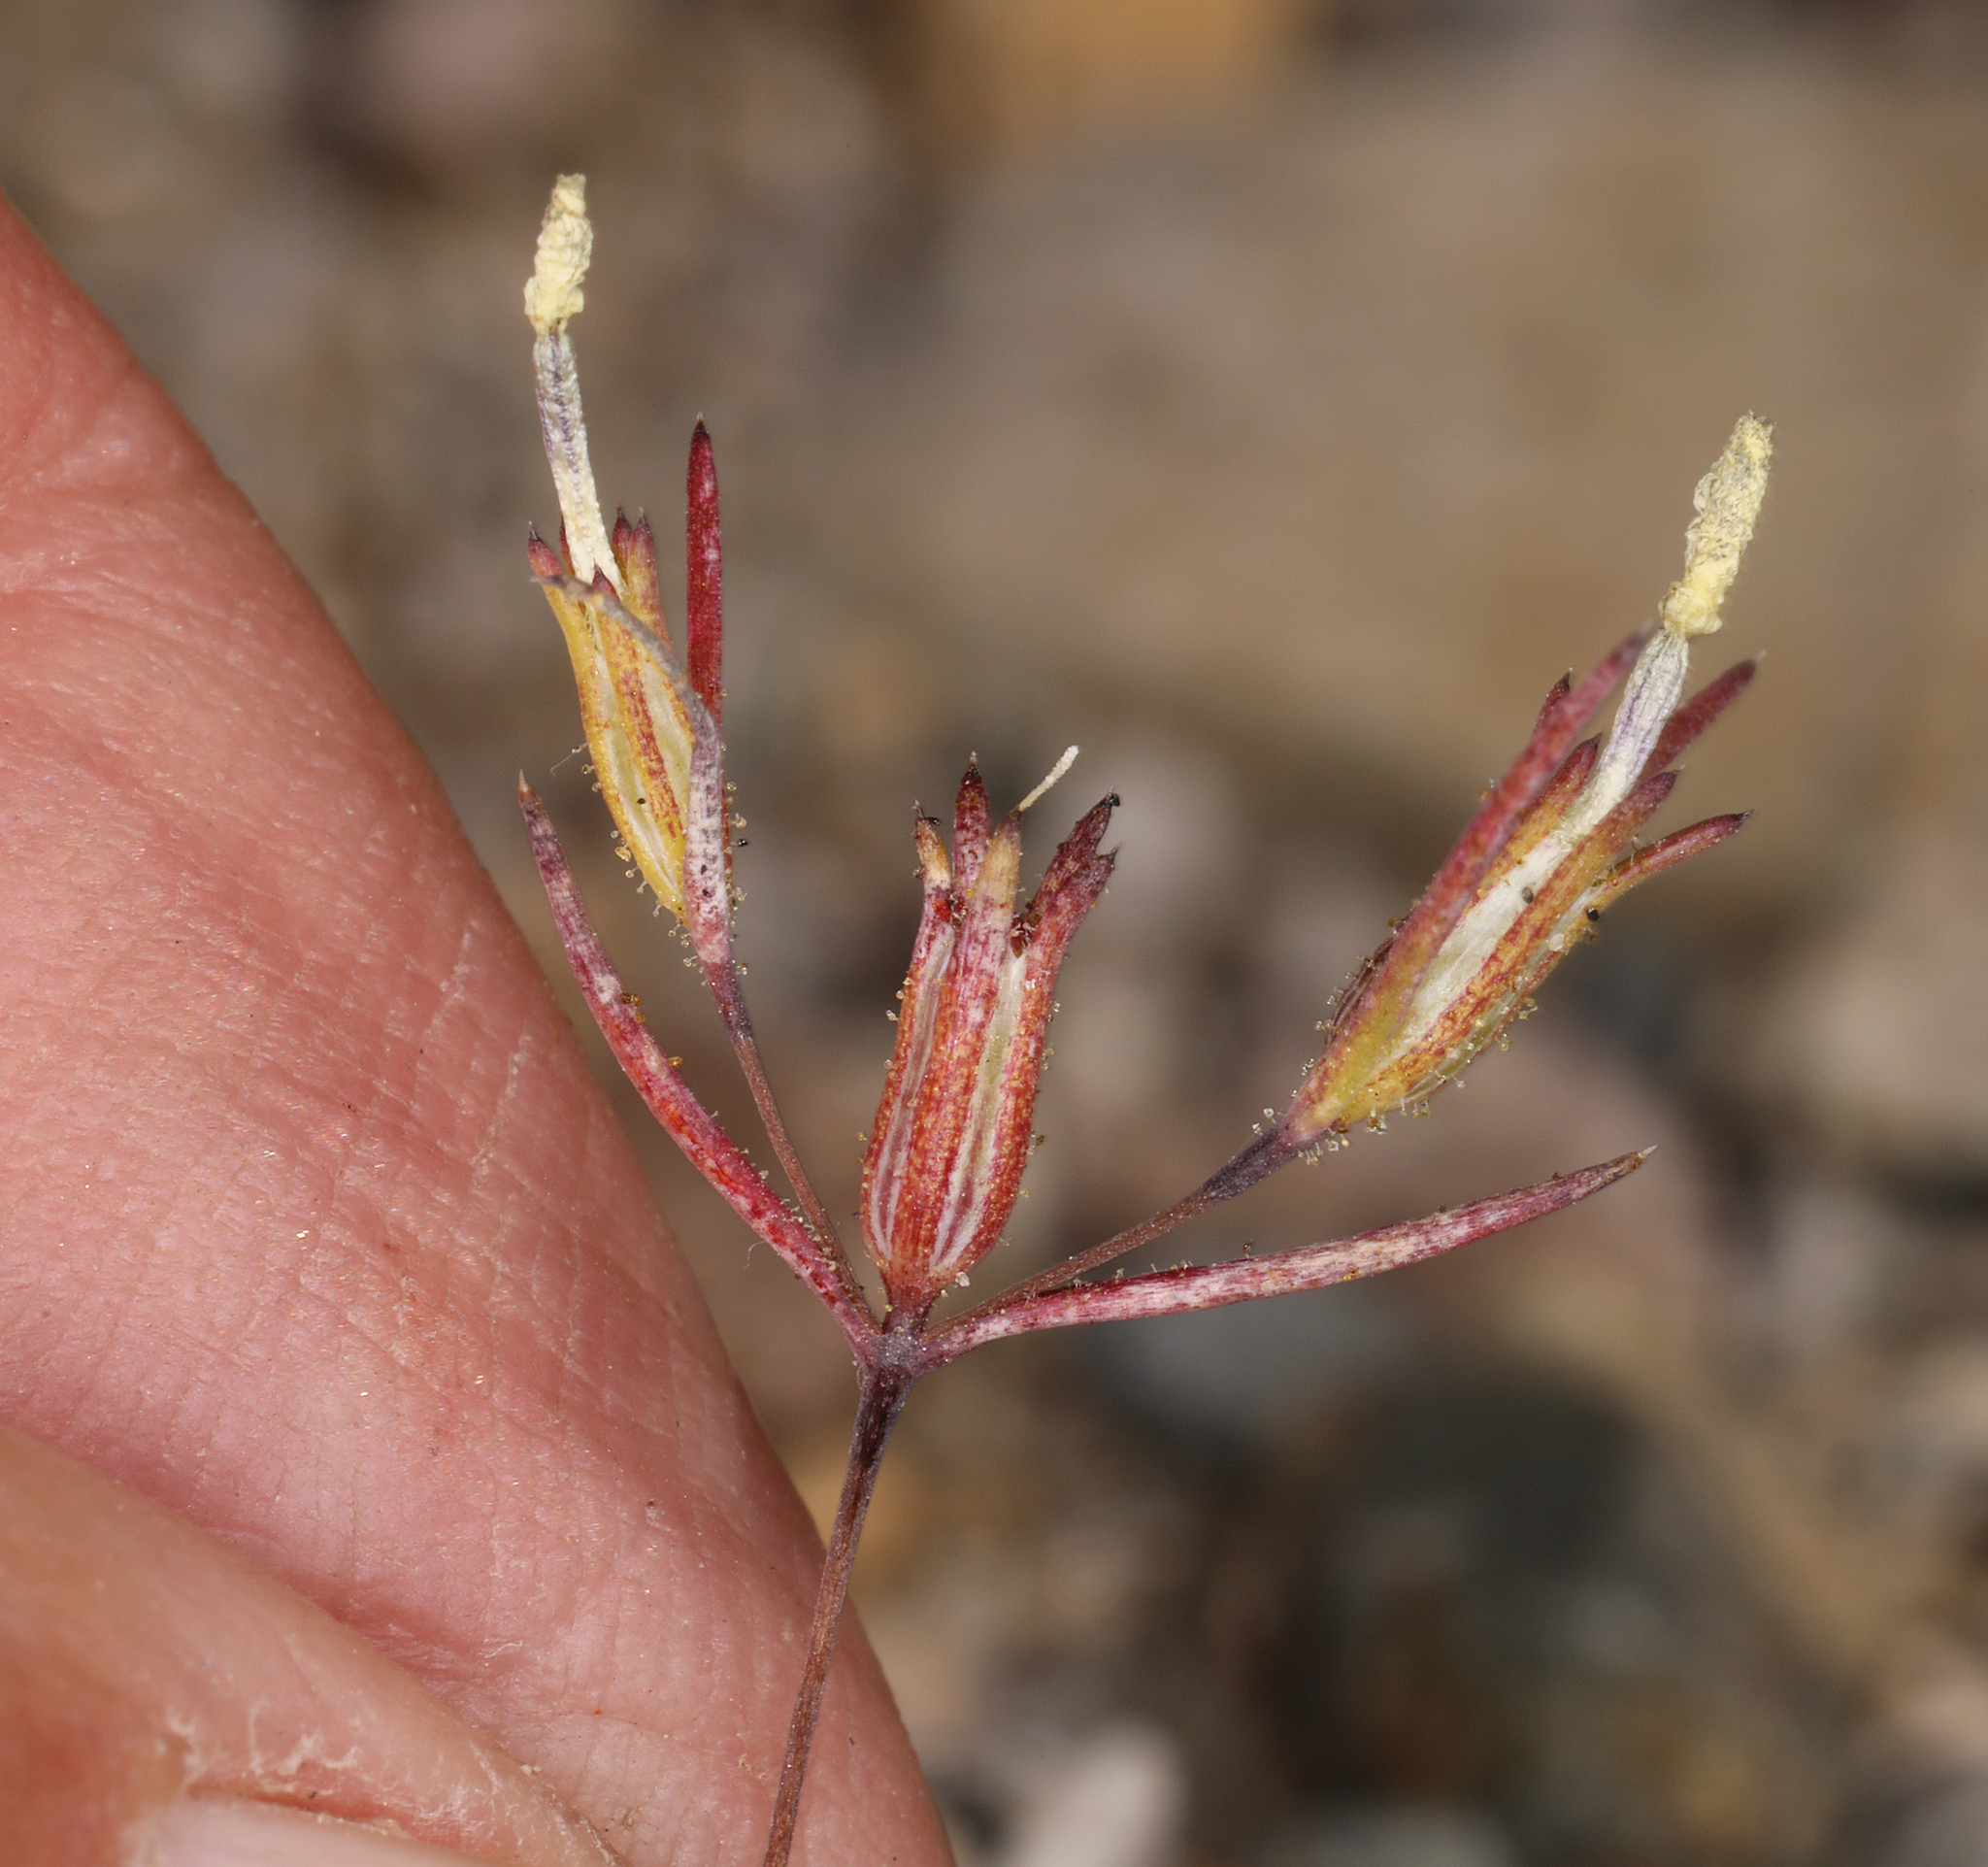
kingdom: Plantae
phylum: Tracheophyta
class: Magnoliopsida
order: Ericales
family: Polemoniaceae
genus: Linanthus
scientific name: Linanthus jonesii
